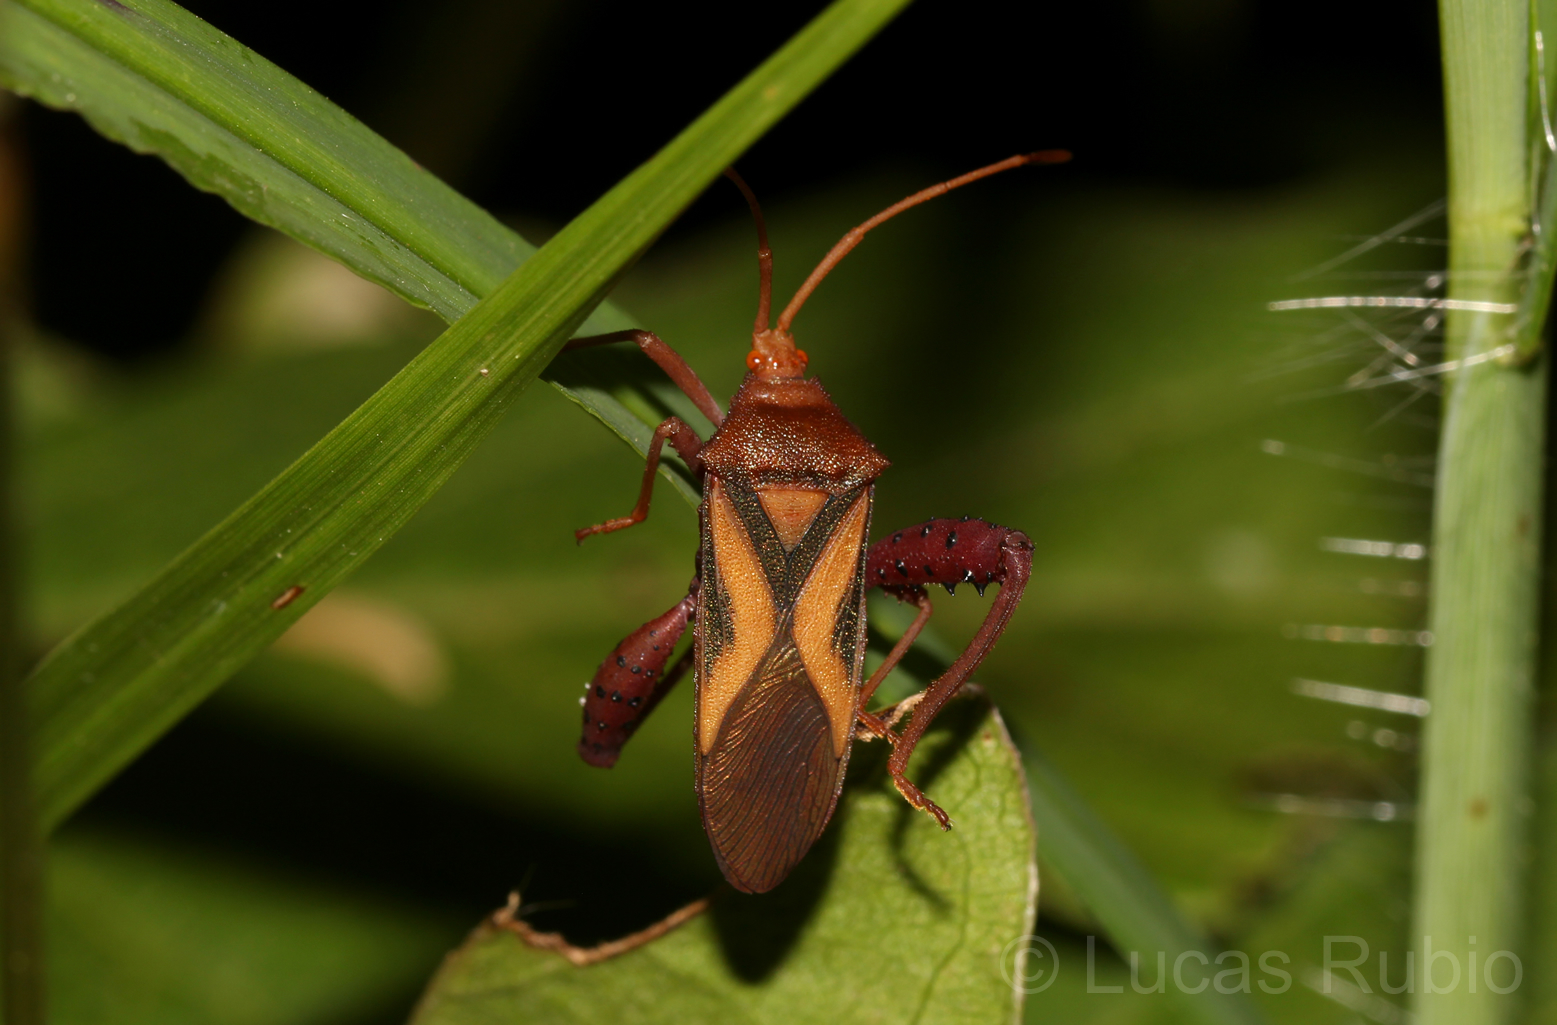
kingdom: Animalia
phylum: Arthropoda
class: Insecta
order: Hemiptera
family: Coreidae
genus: Crinocerus
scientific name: Crinocerus sanctus
